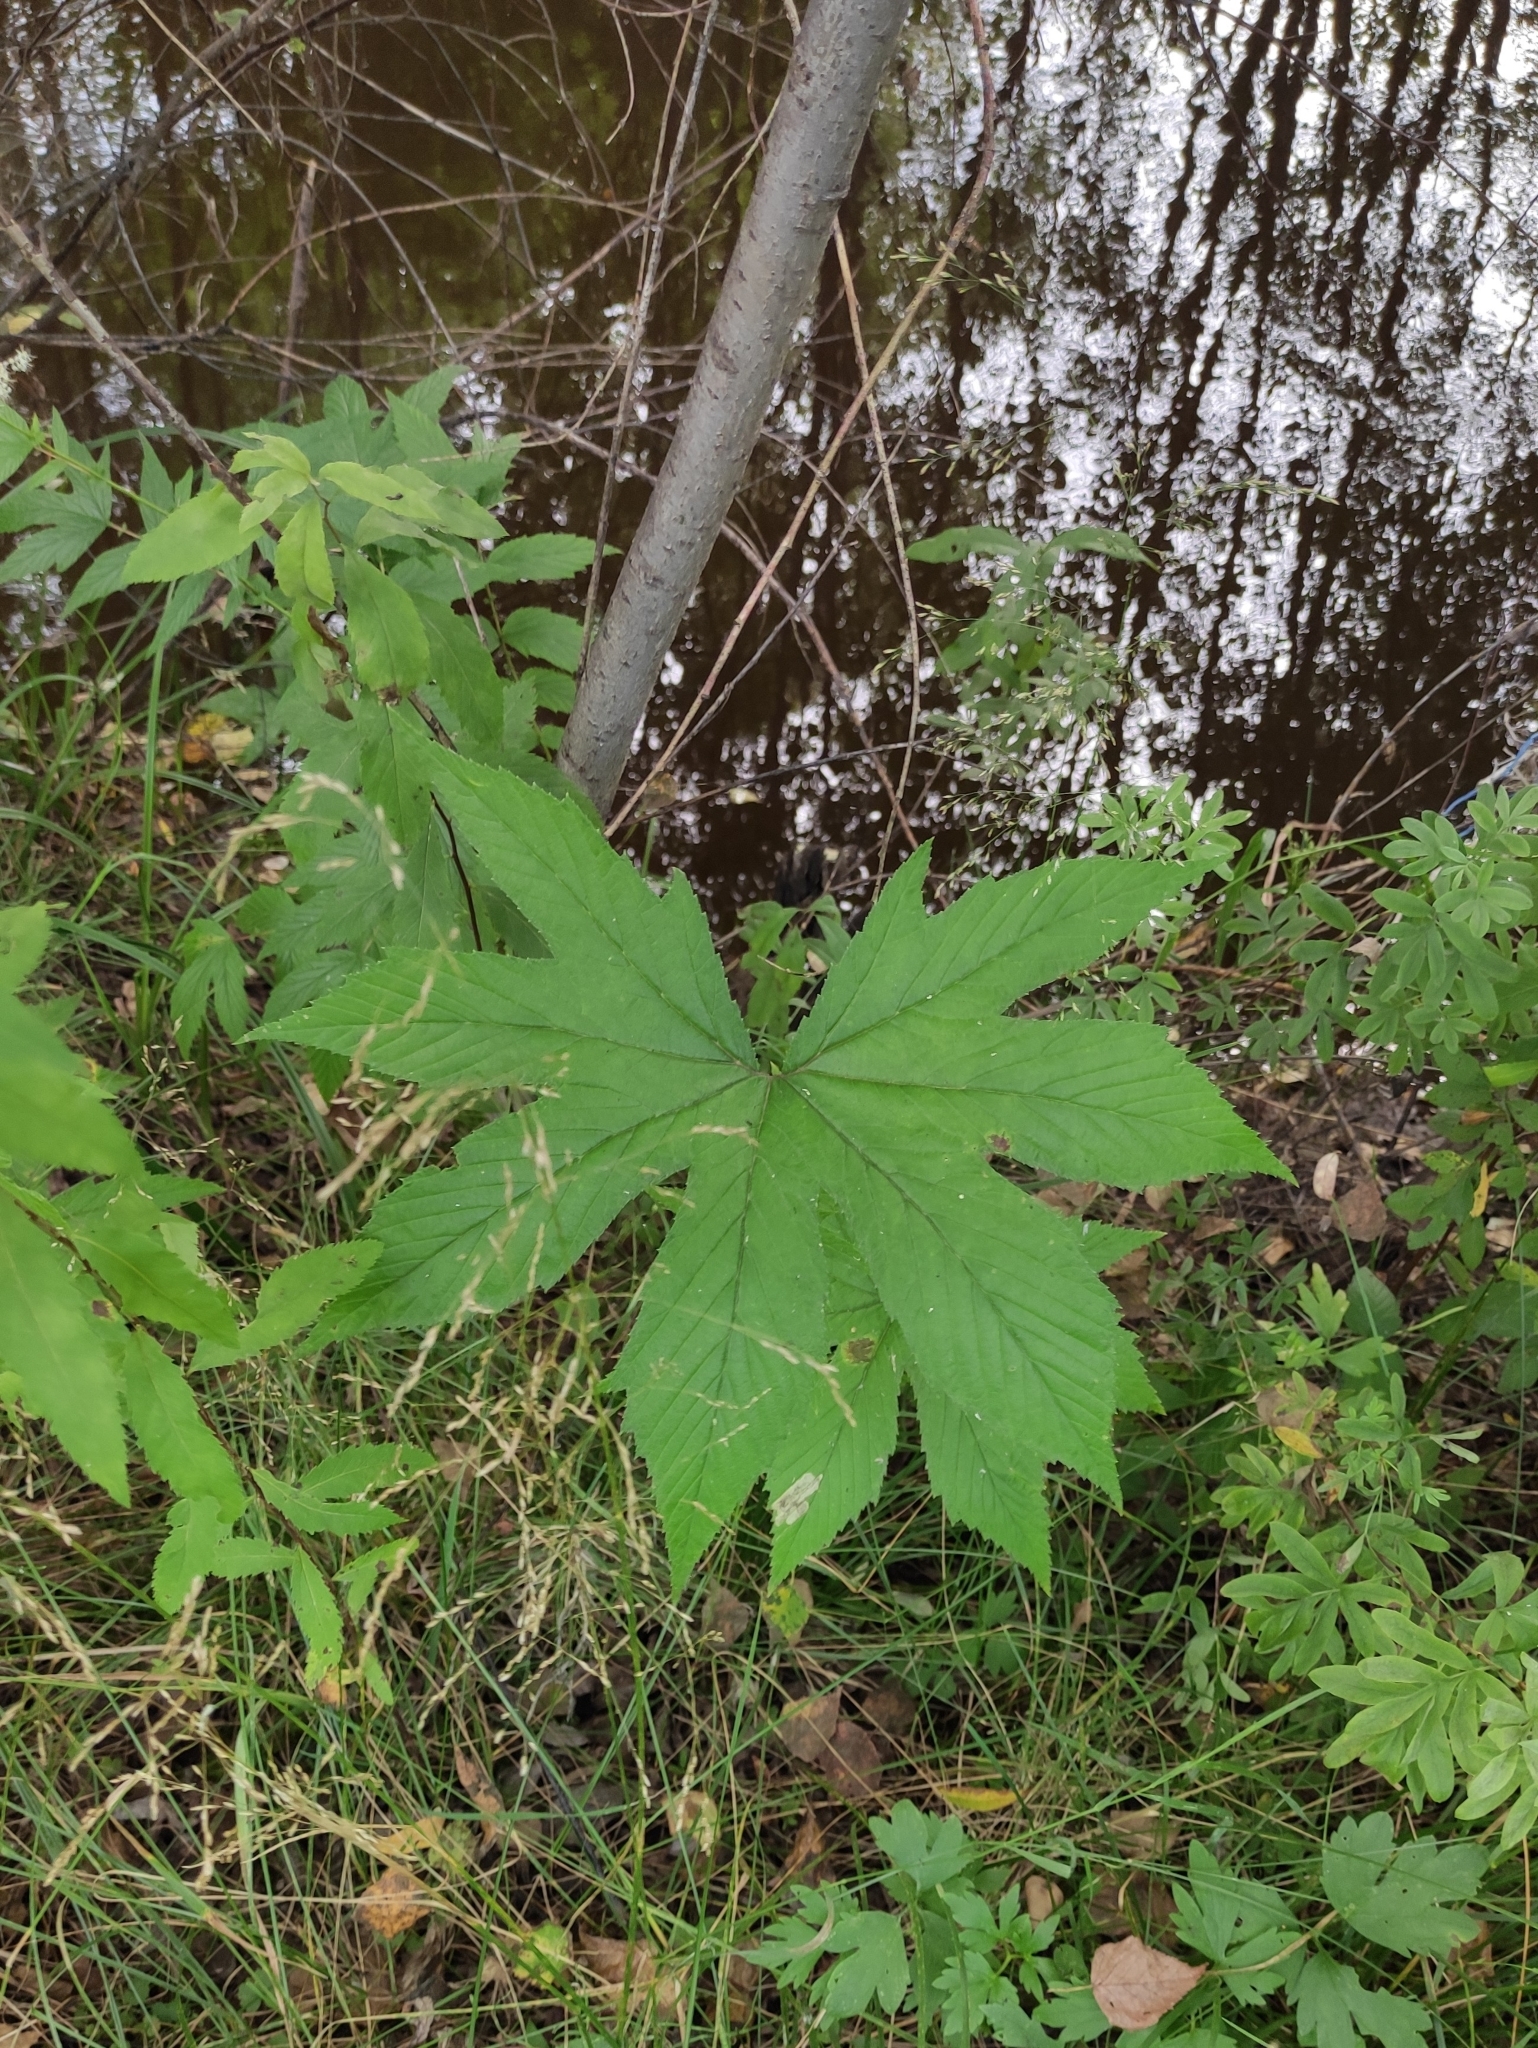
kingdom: Plantae
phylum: Tracheophyta
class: Magnoliopsida
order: Rosales
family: Rosaceae
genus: Filipendula
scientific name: Filipendula digitata
